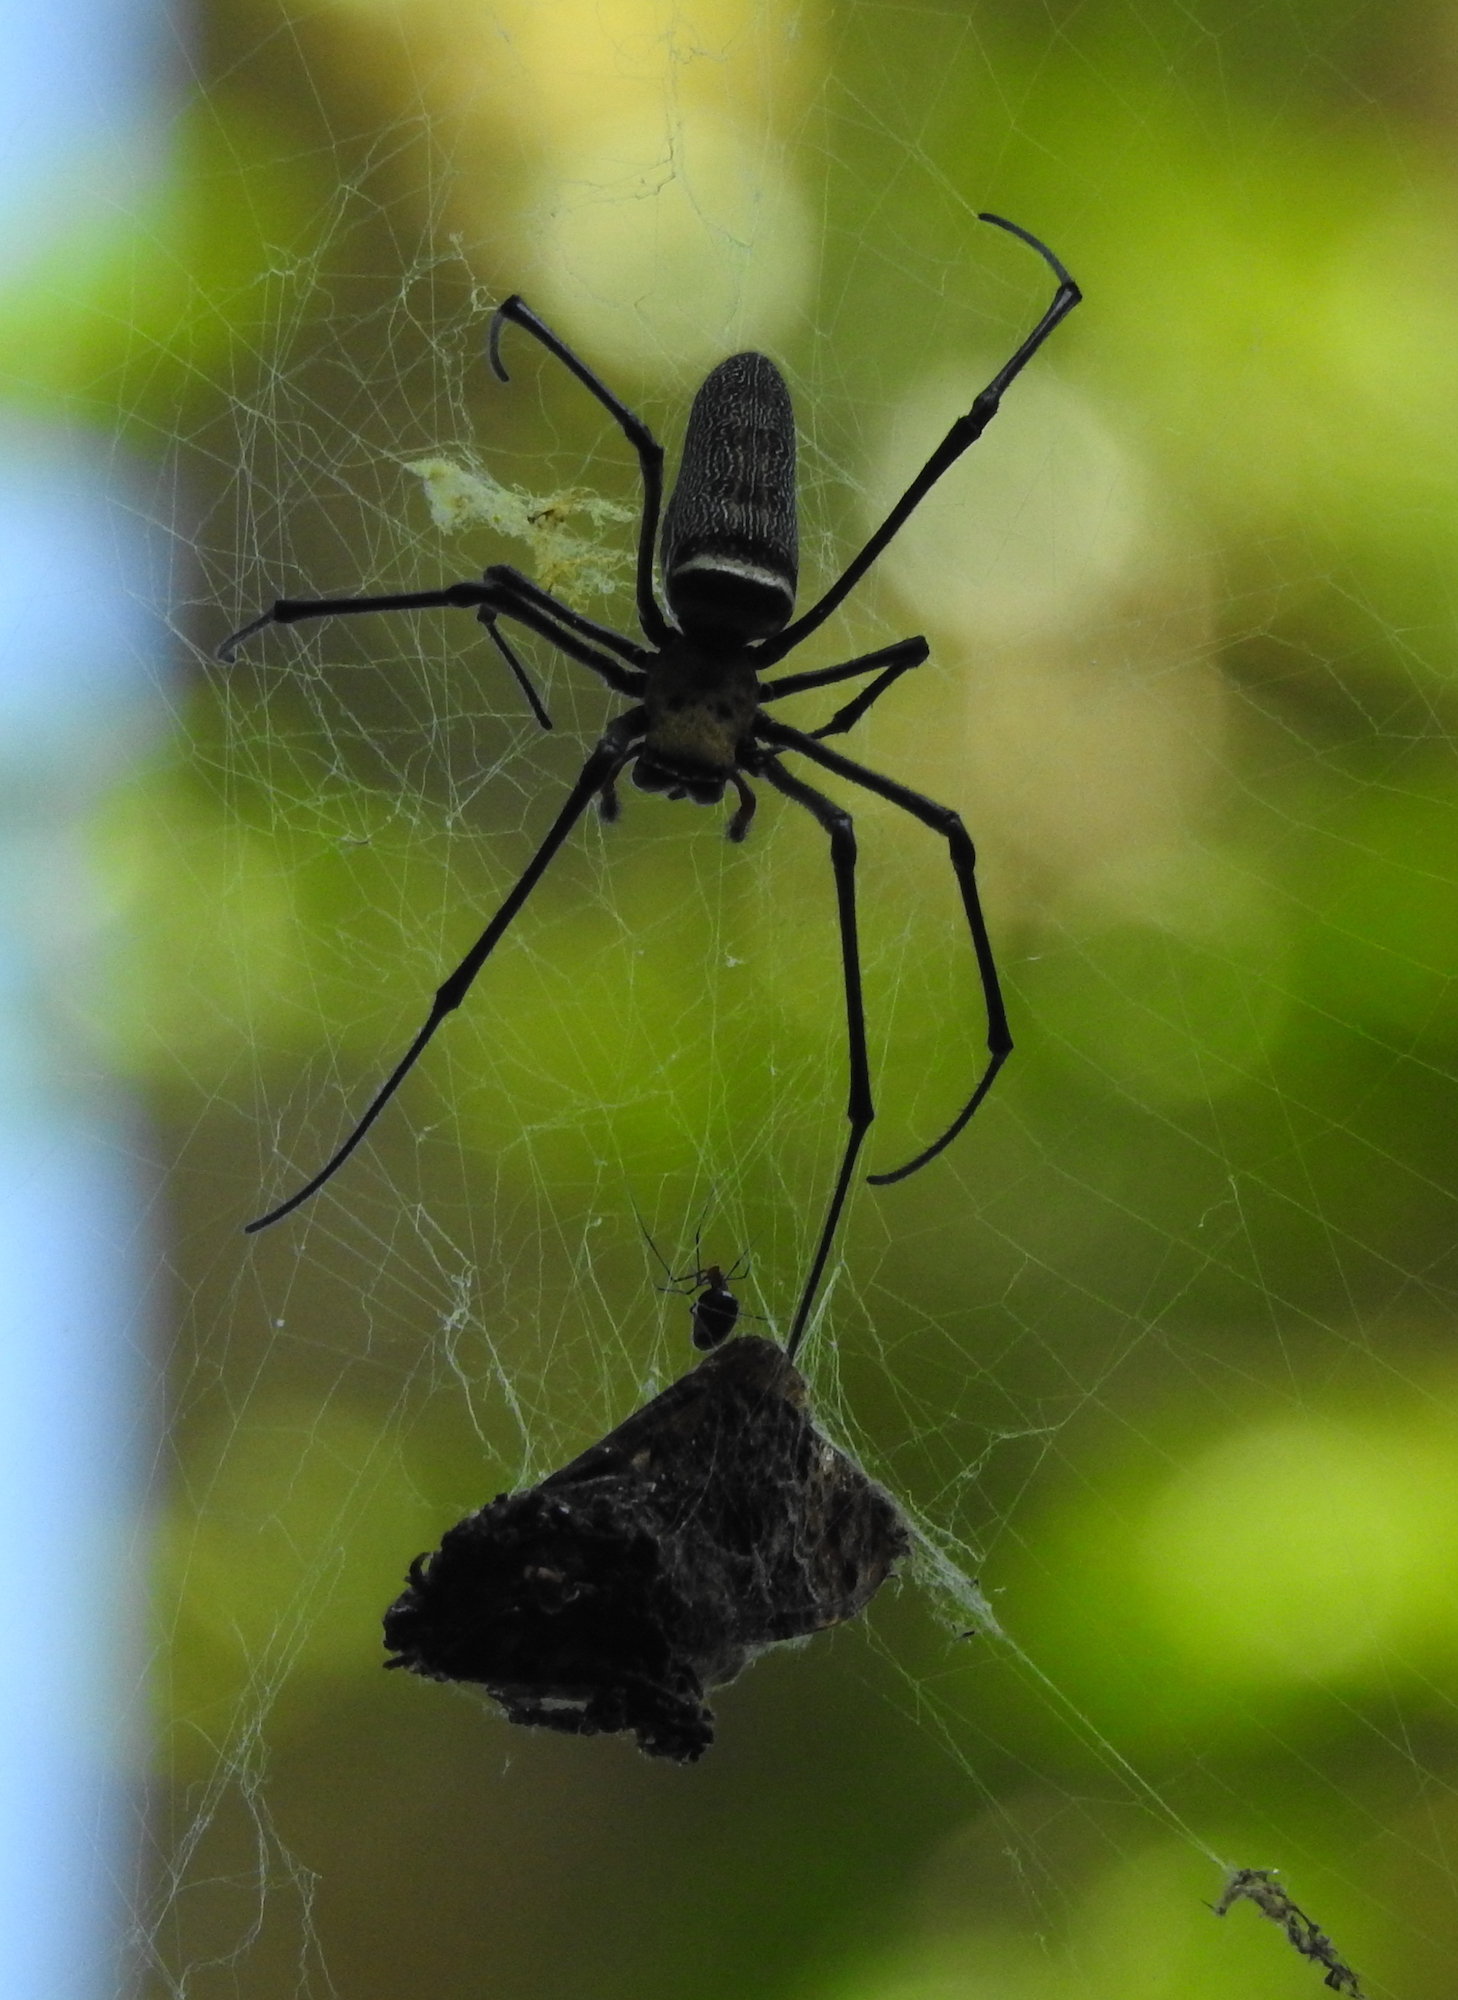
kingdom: Animalia
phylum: Arthropoda
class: Arachnida
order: Araneae
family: Araneidae
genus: Nephila
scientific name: Nephila pilipes
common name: Giant golden orb weaver
